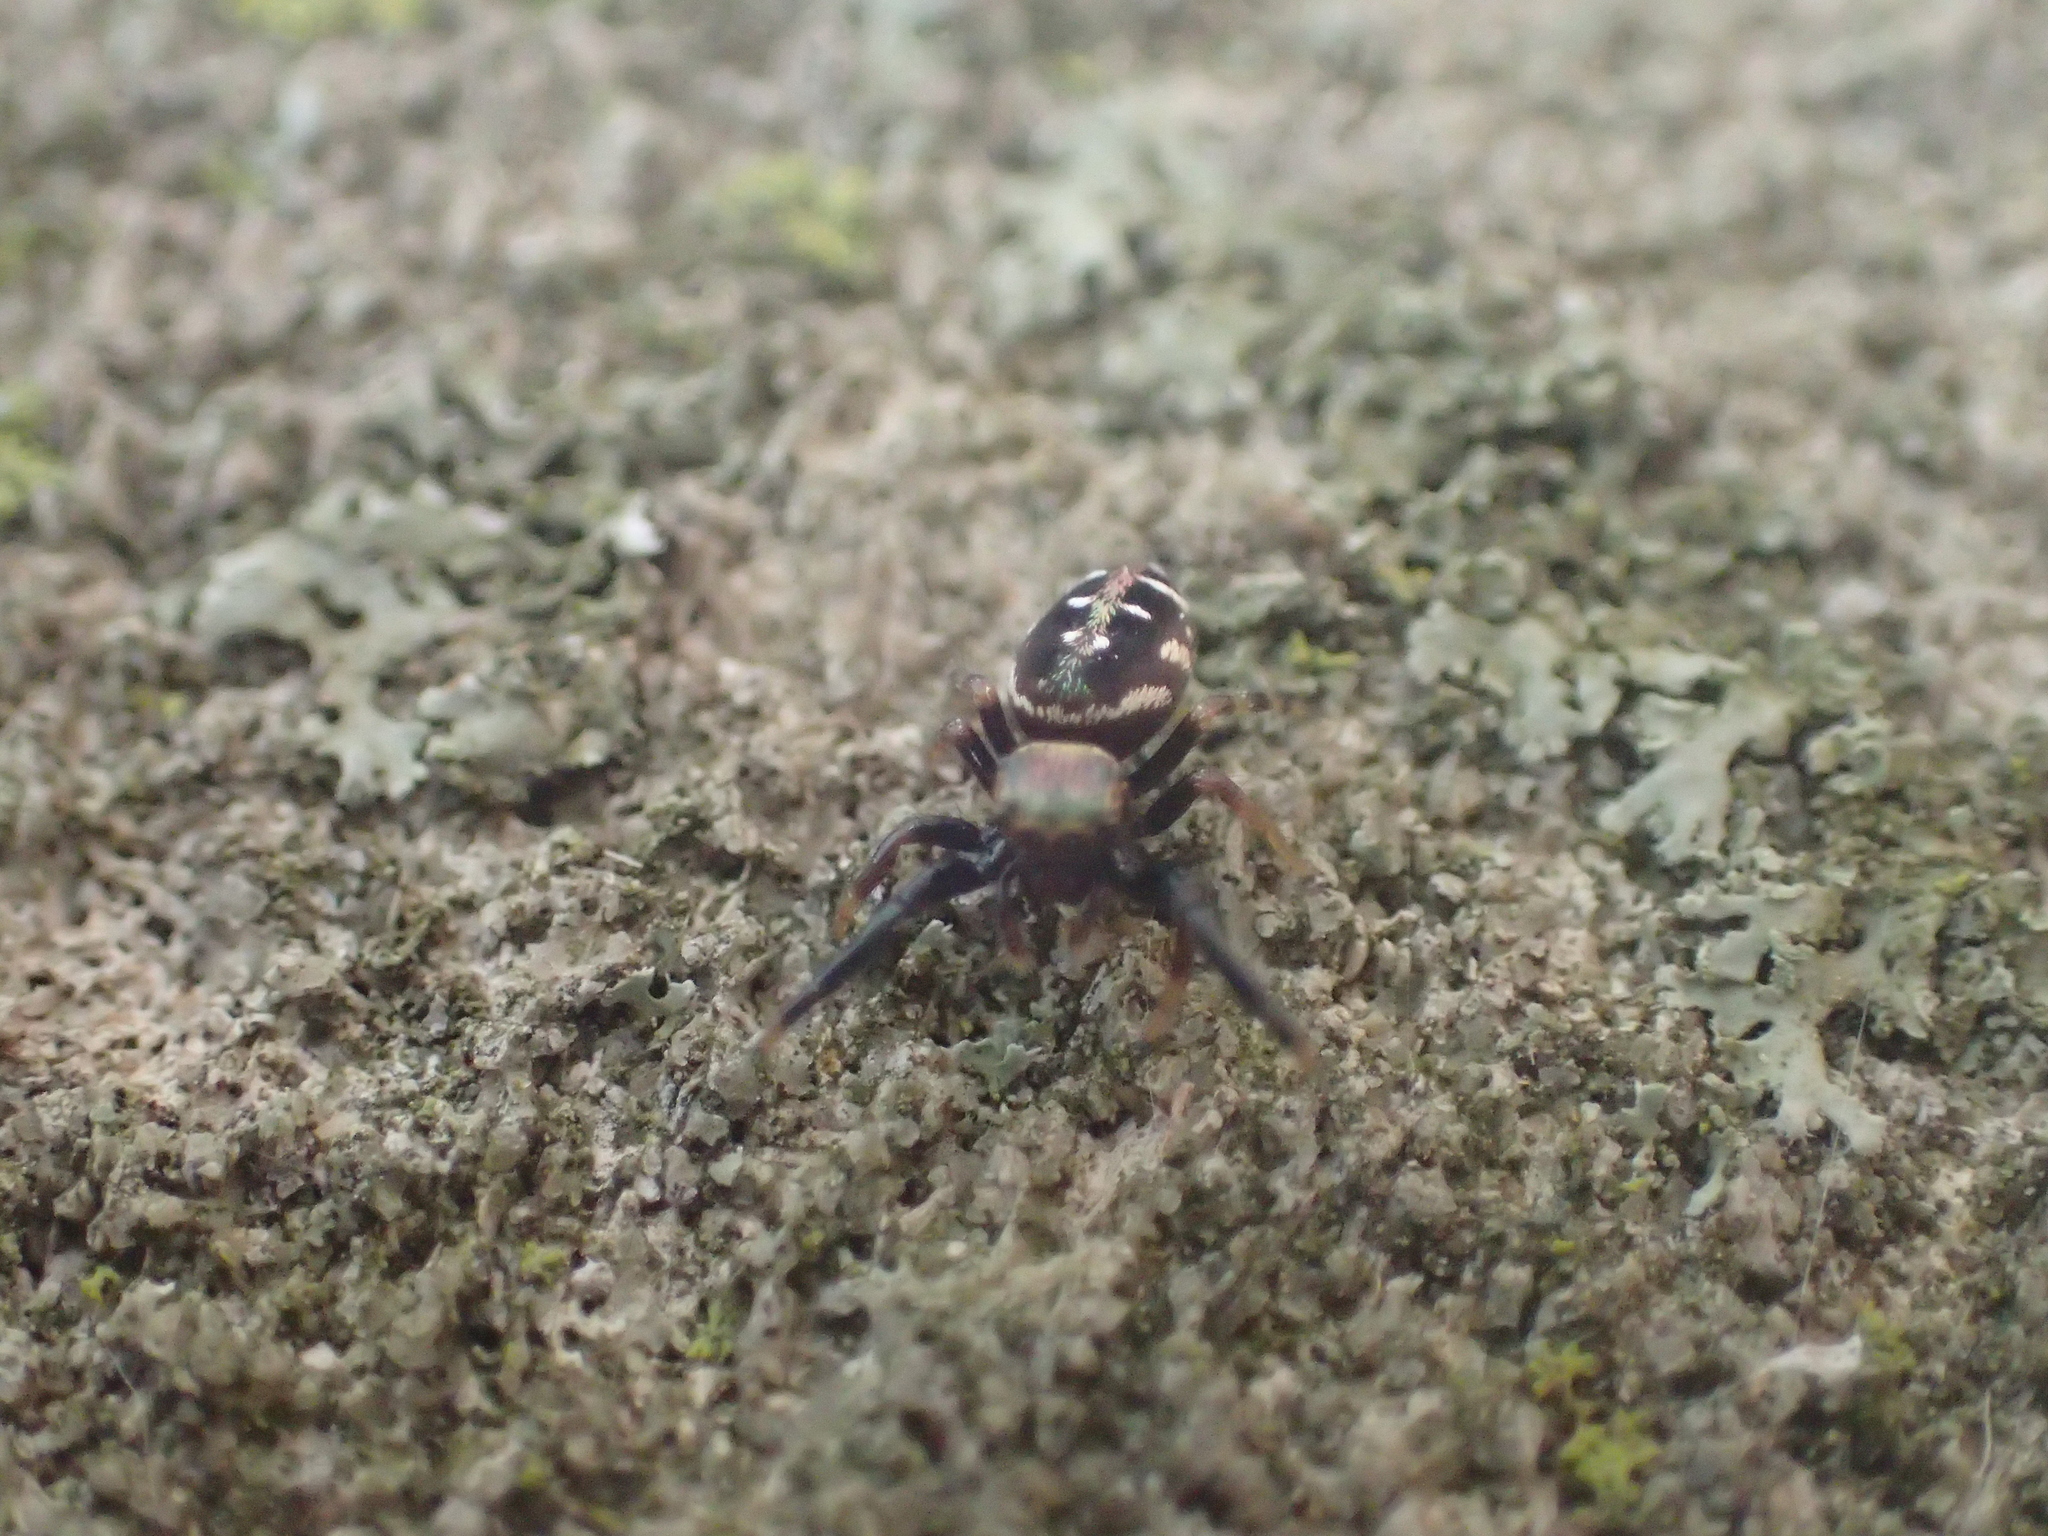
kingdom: Animalia
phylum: Arthropoda
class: Arachnida
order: Araneae
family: Salticidae
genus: Paraphidippus
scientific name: Paraphidippus aurantius
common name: Jumping spiders
